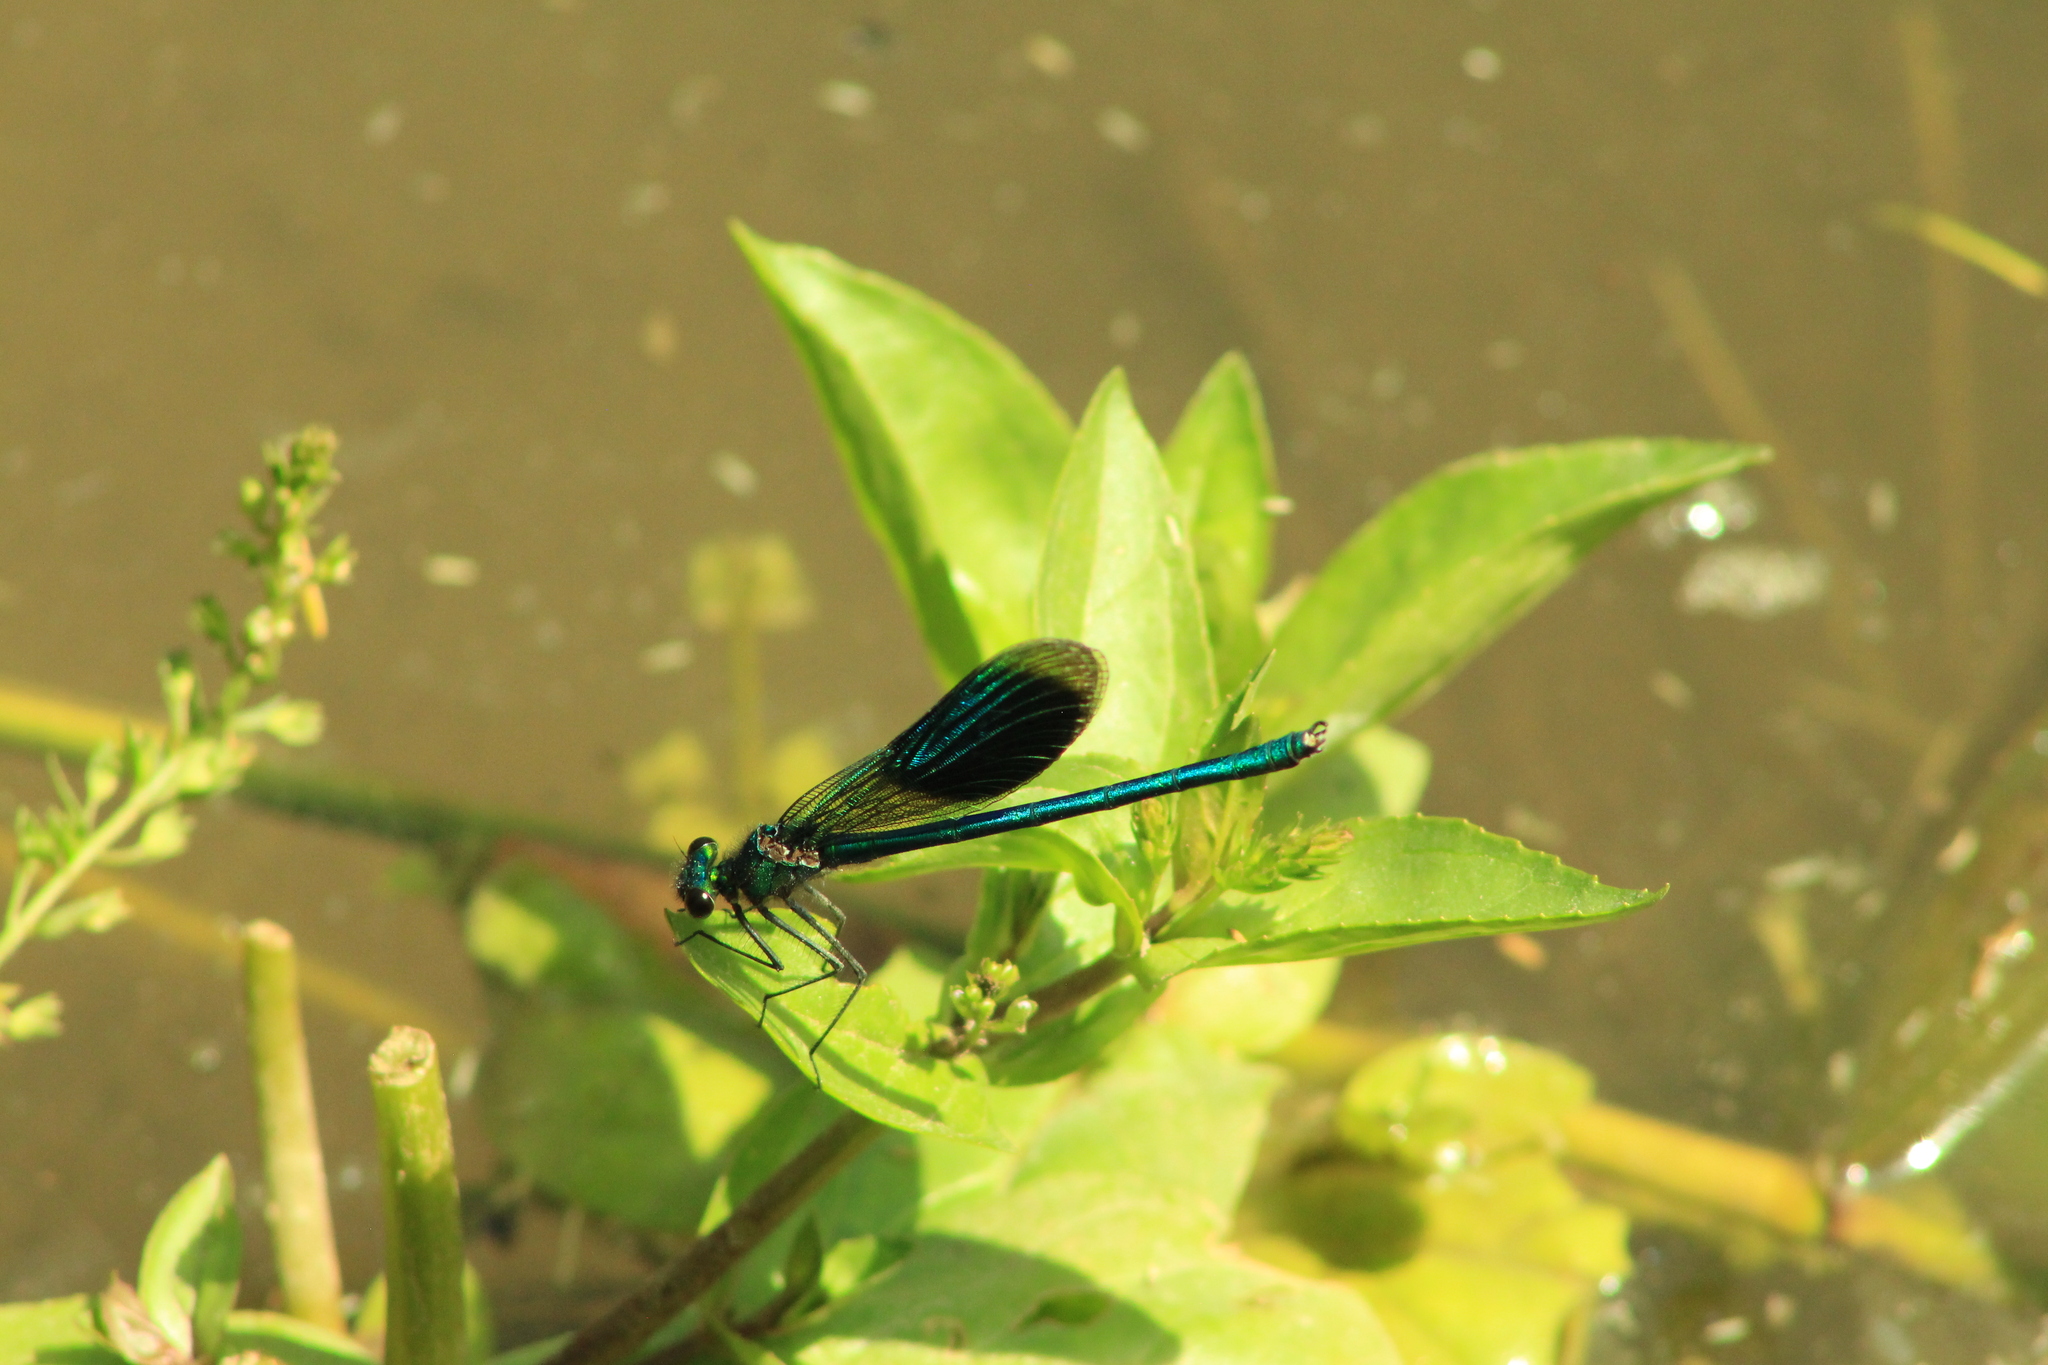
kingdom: Animalia
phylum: Arthropoda
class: Insecta
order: Odonata
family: Calopterygidae
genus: Calopteryx
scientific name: Calopteryx splendens
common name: Banded demoiselle
